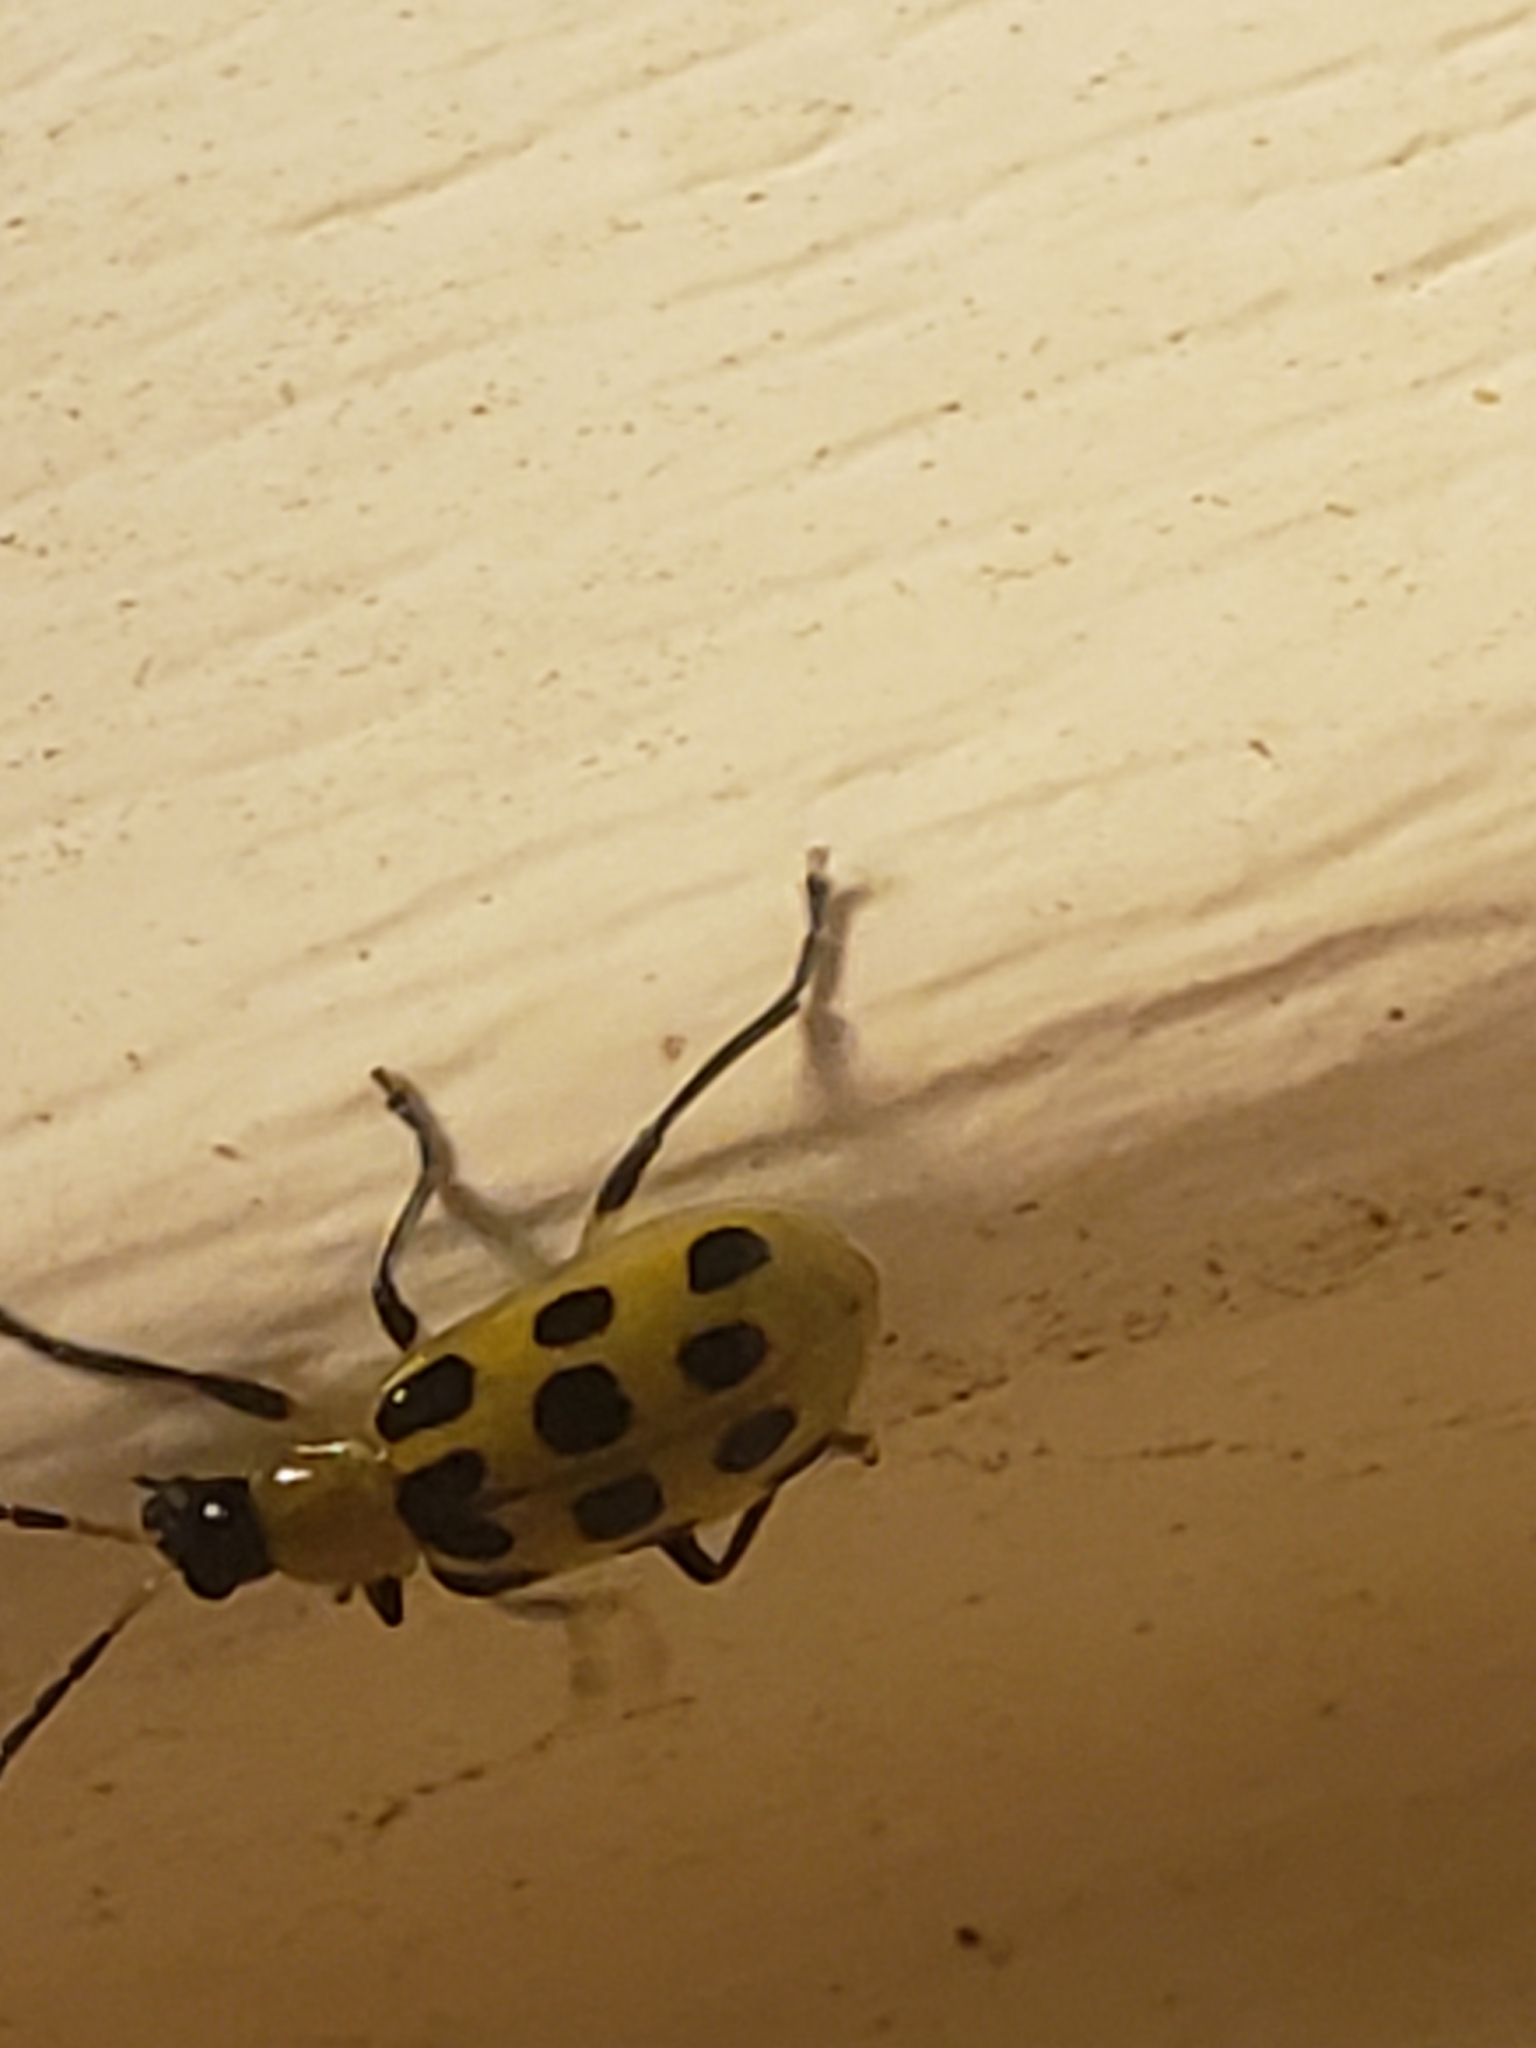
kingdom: Animalia
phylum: Arthropoda
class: Insecta
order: Coleoptera
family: Chrysomelidae
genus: Diabrotica
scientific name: Diabrotica undecimpunctata
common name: Spotted cucumber beetle
